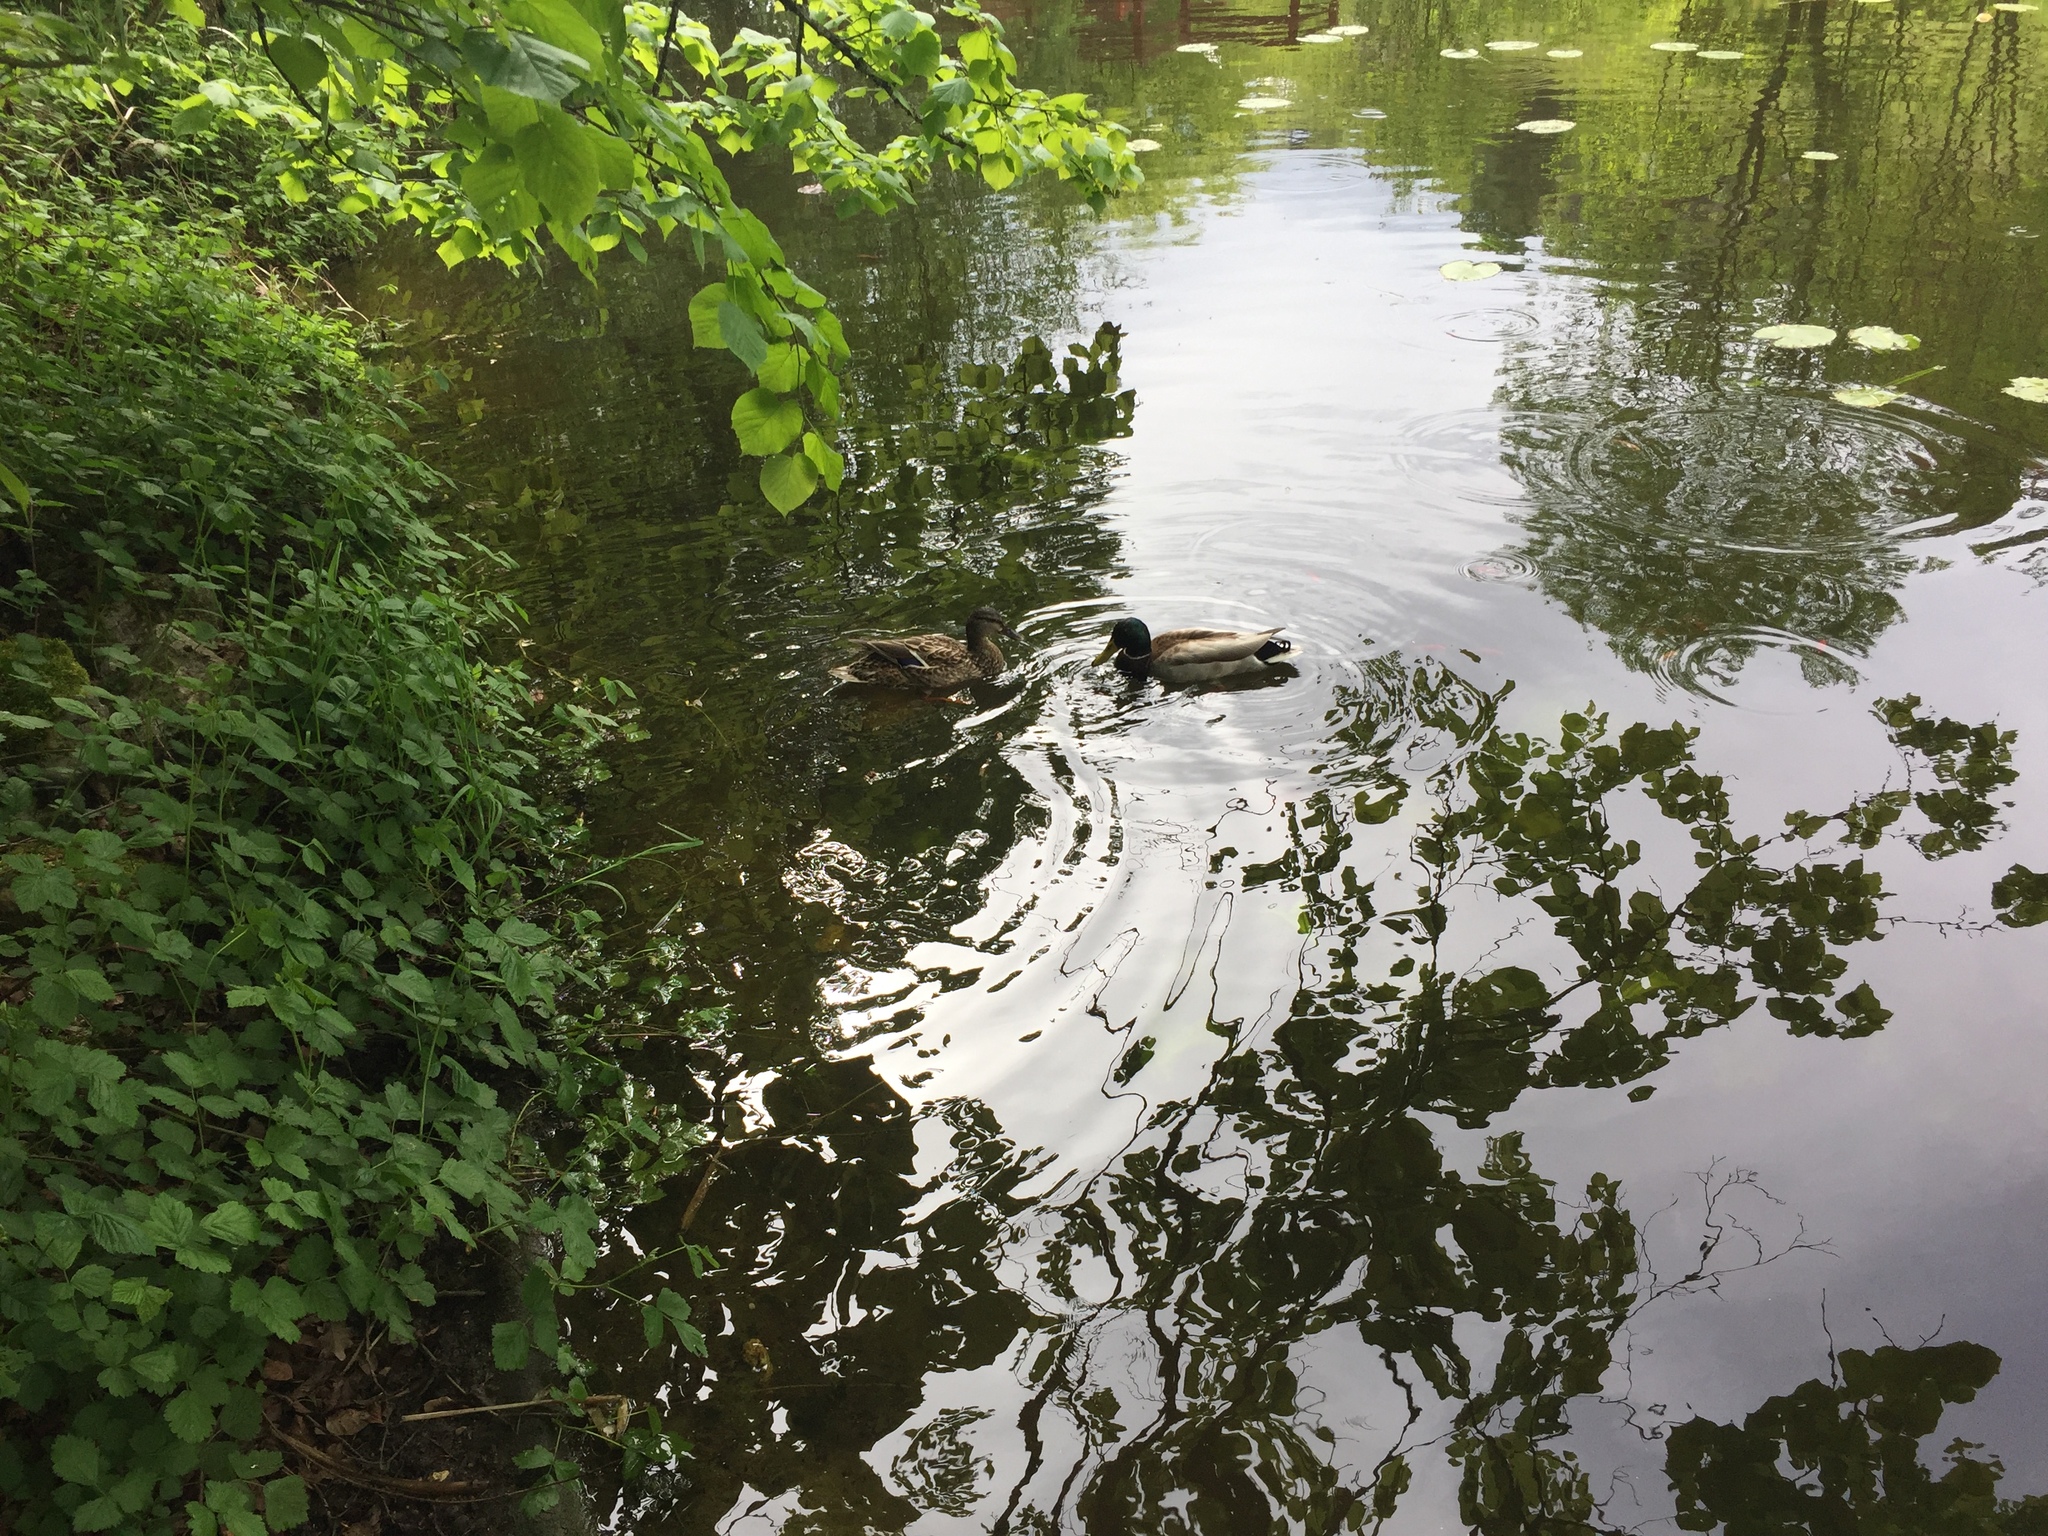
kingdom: Animalia
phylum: Chordata
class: Aves
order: Anseriformes
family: Anatidae
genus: Anas
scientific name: Anas platyrhynchos
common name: Mallard
